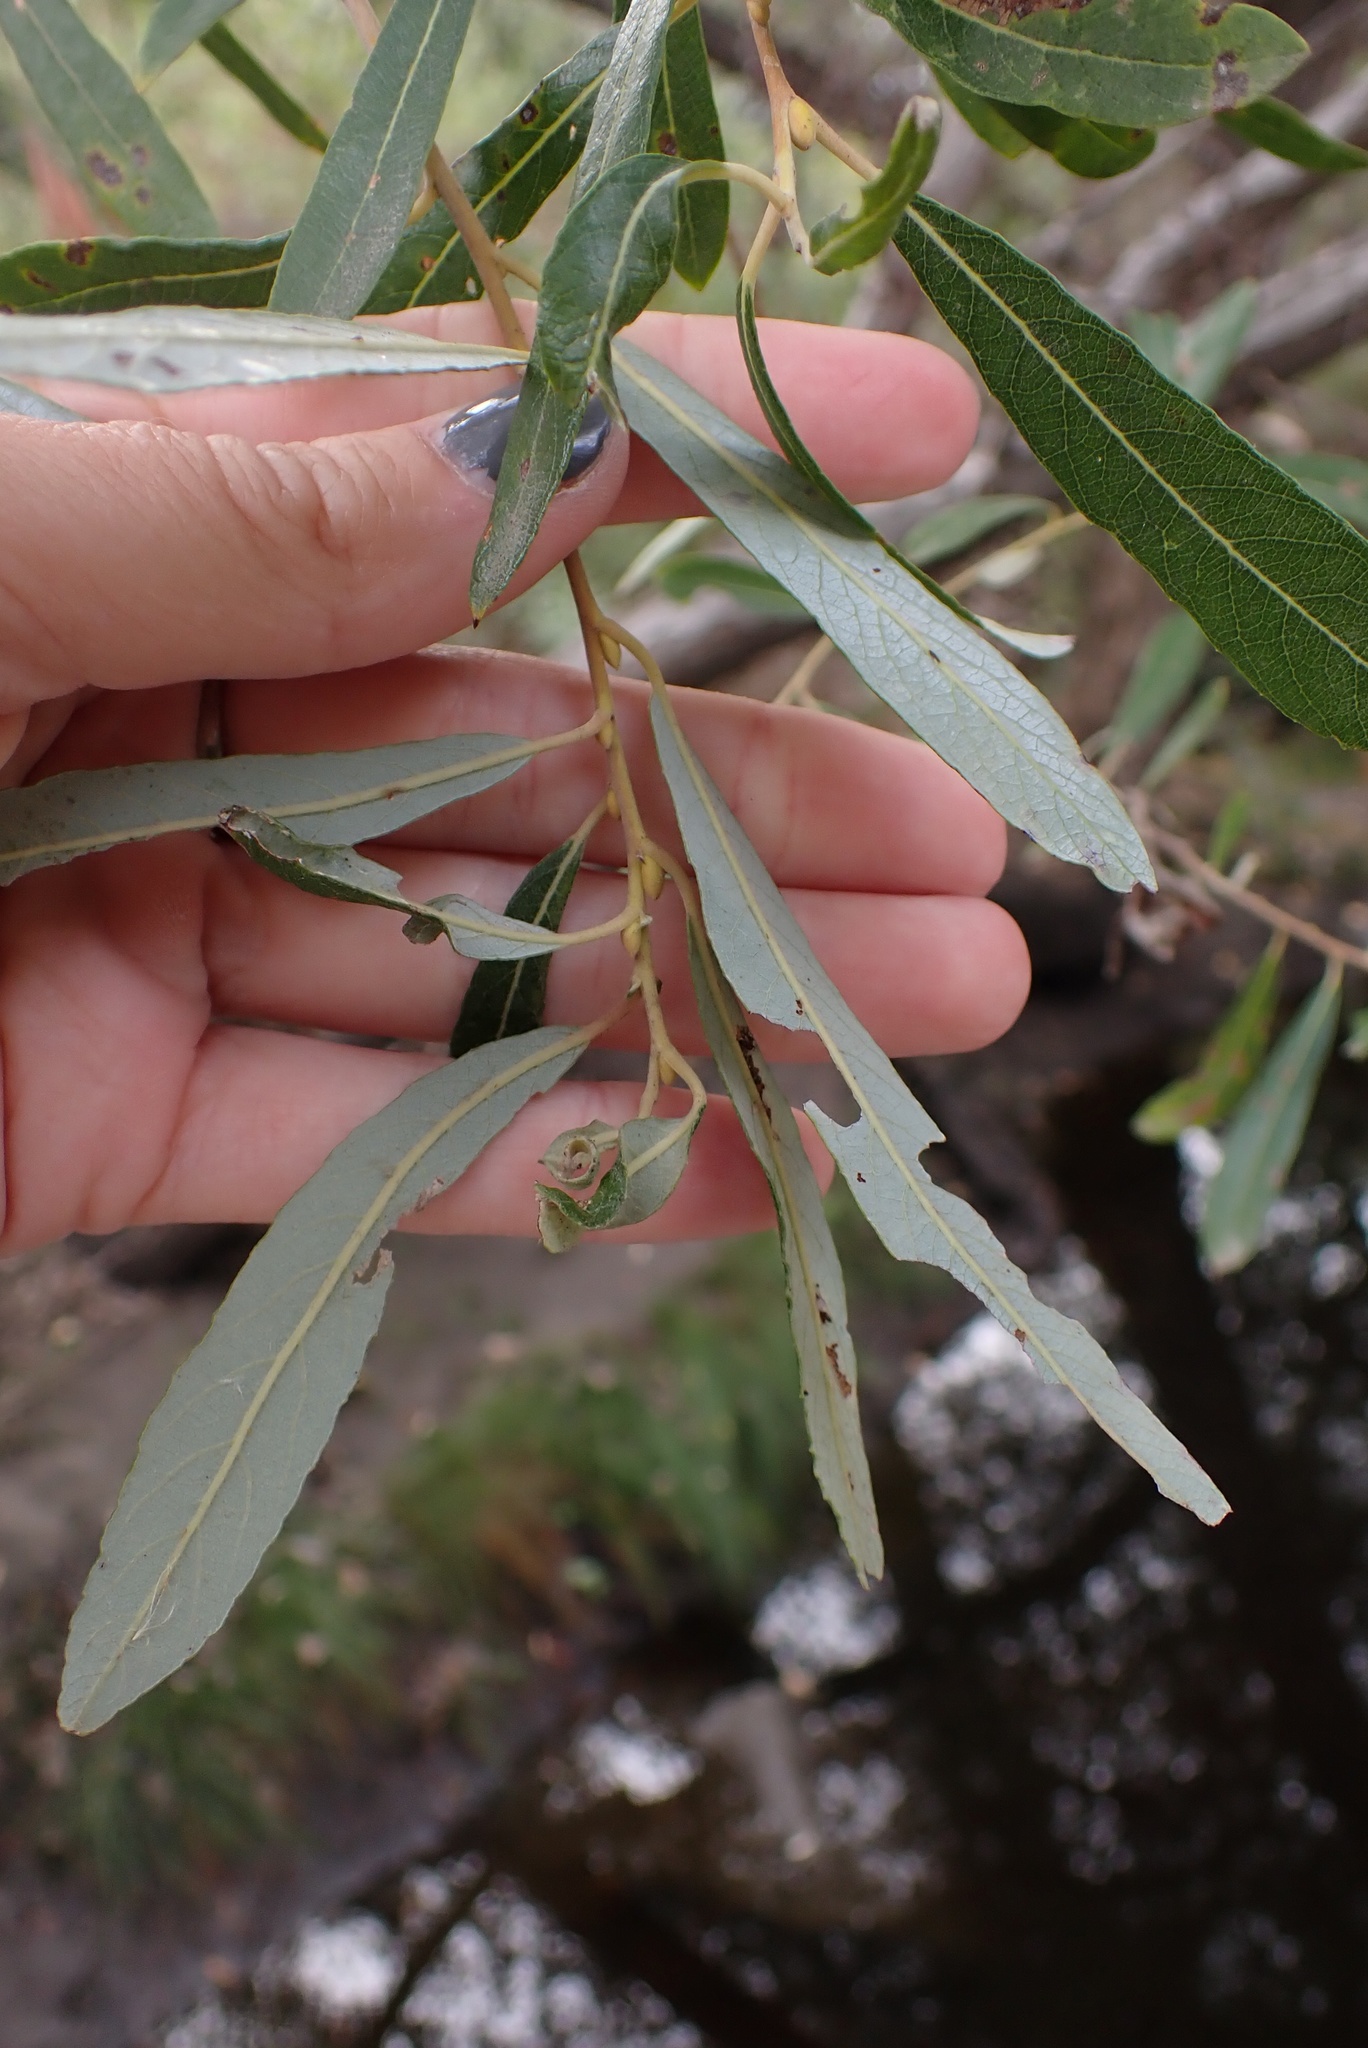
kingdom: Plantae
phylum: Tracheophyta
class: Magnoliopsida
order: Malpighiales
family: Salicaceae
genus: Salix
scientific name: Salix lasiolepis
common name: Arroyo willow
